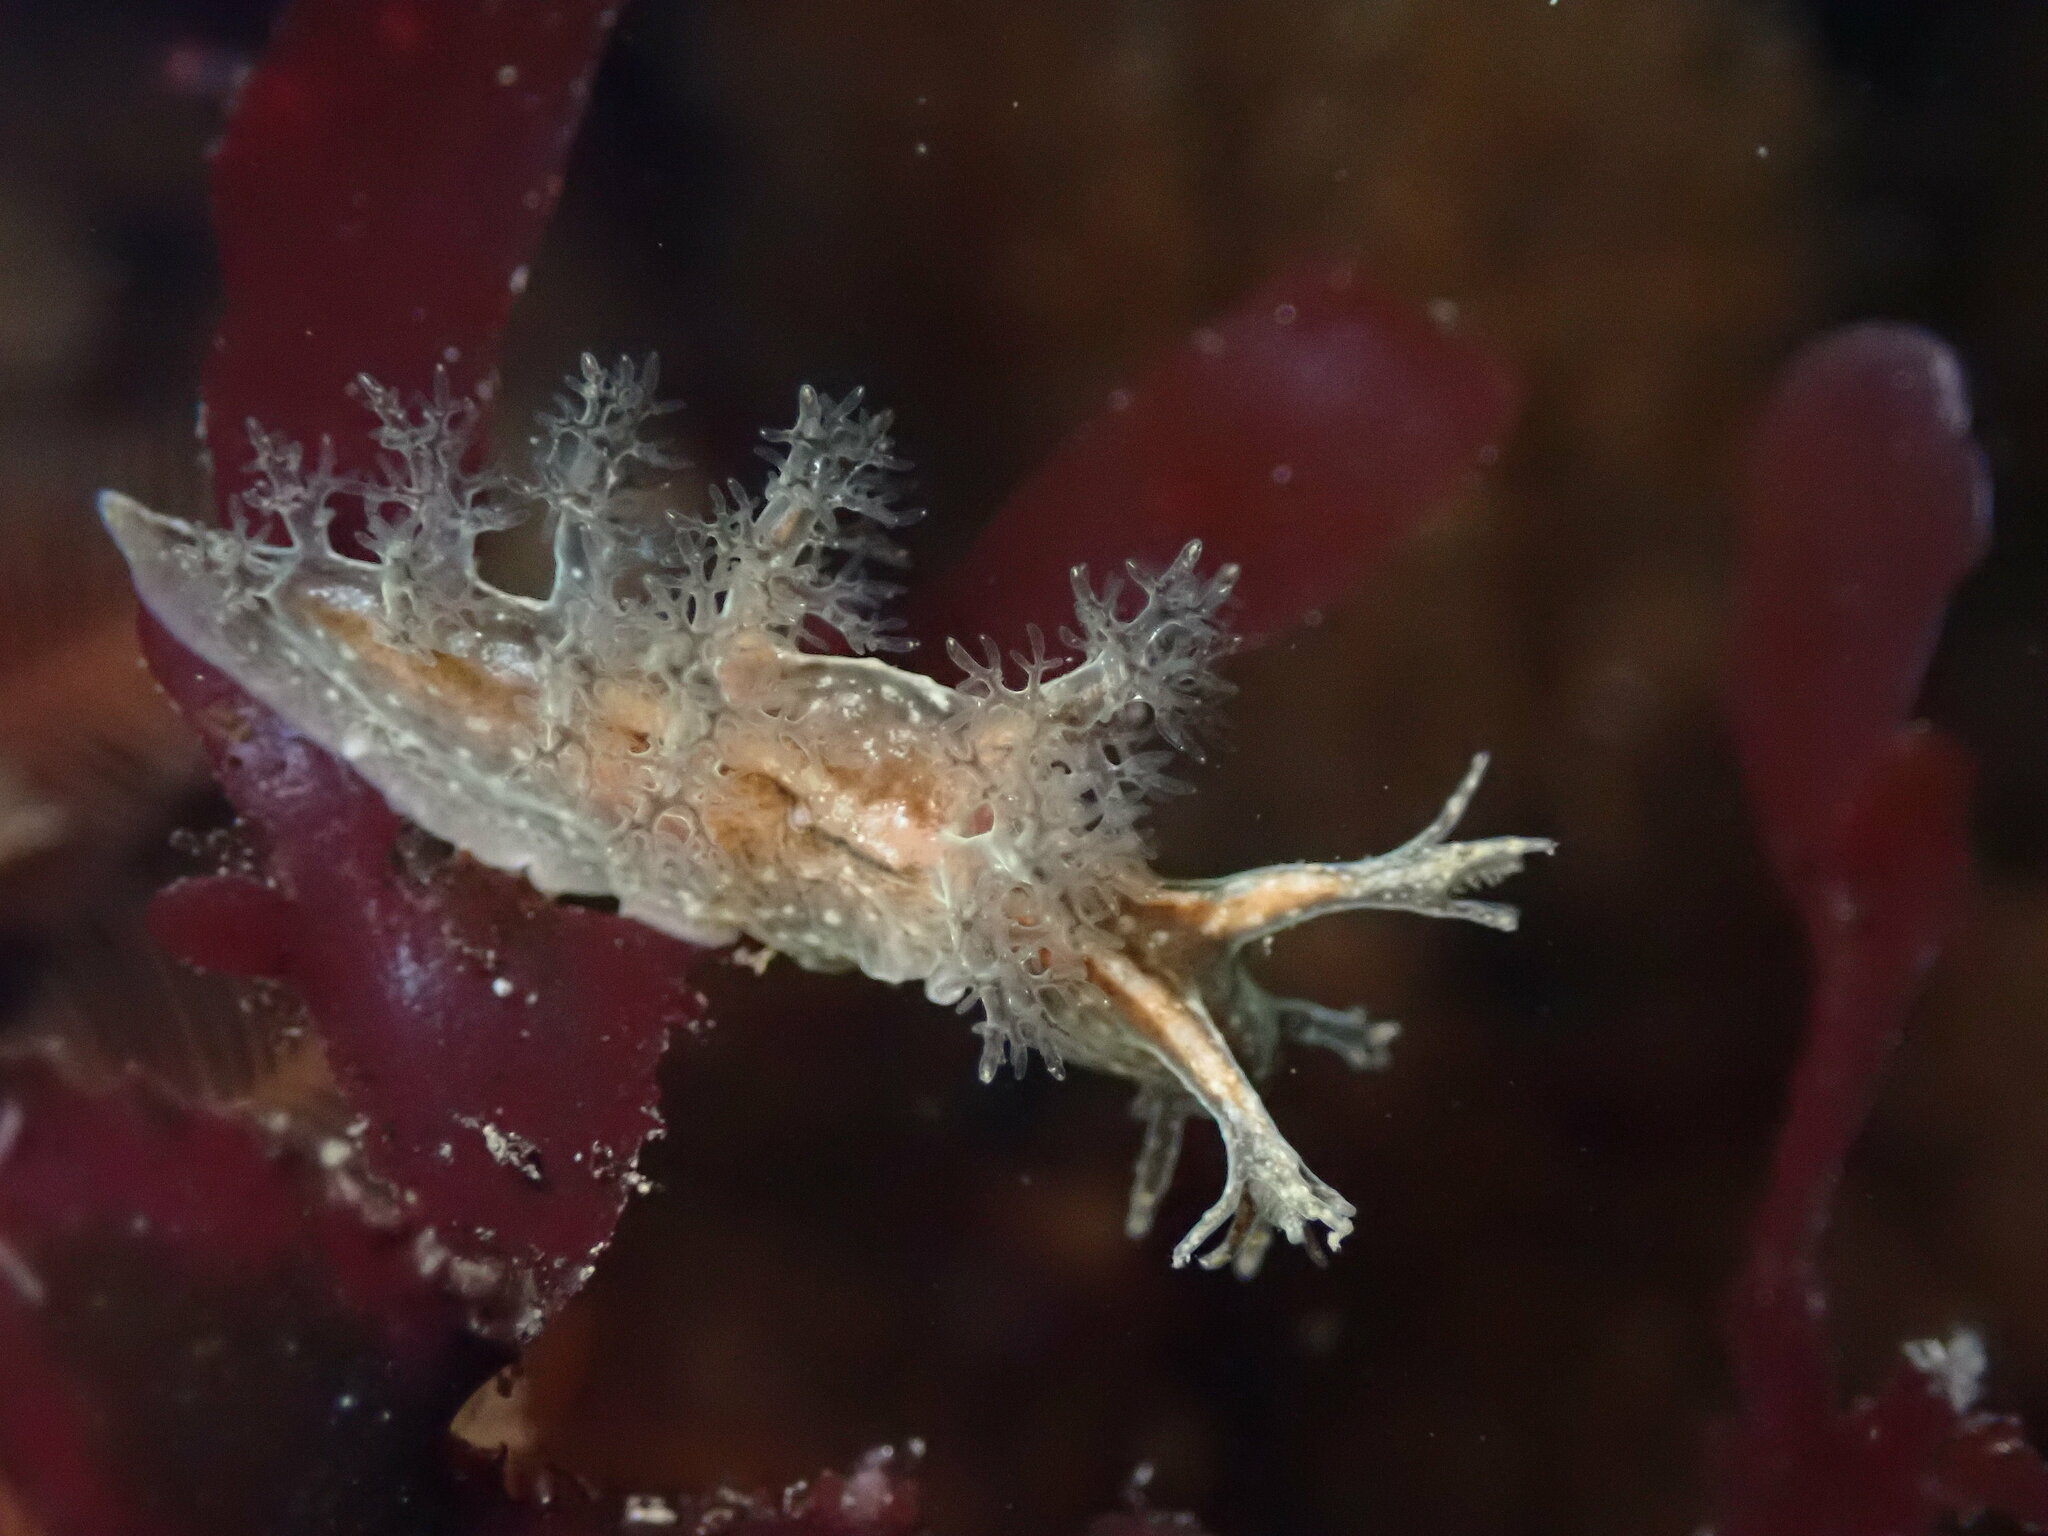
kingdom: Animalia
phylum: Mollusca
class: Gastropoda
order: Nudibranchia
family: Dendronotidae
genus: Dendronotus
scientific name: Dendronotus subramosus
